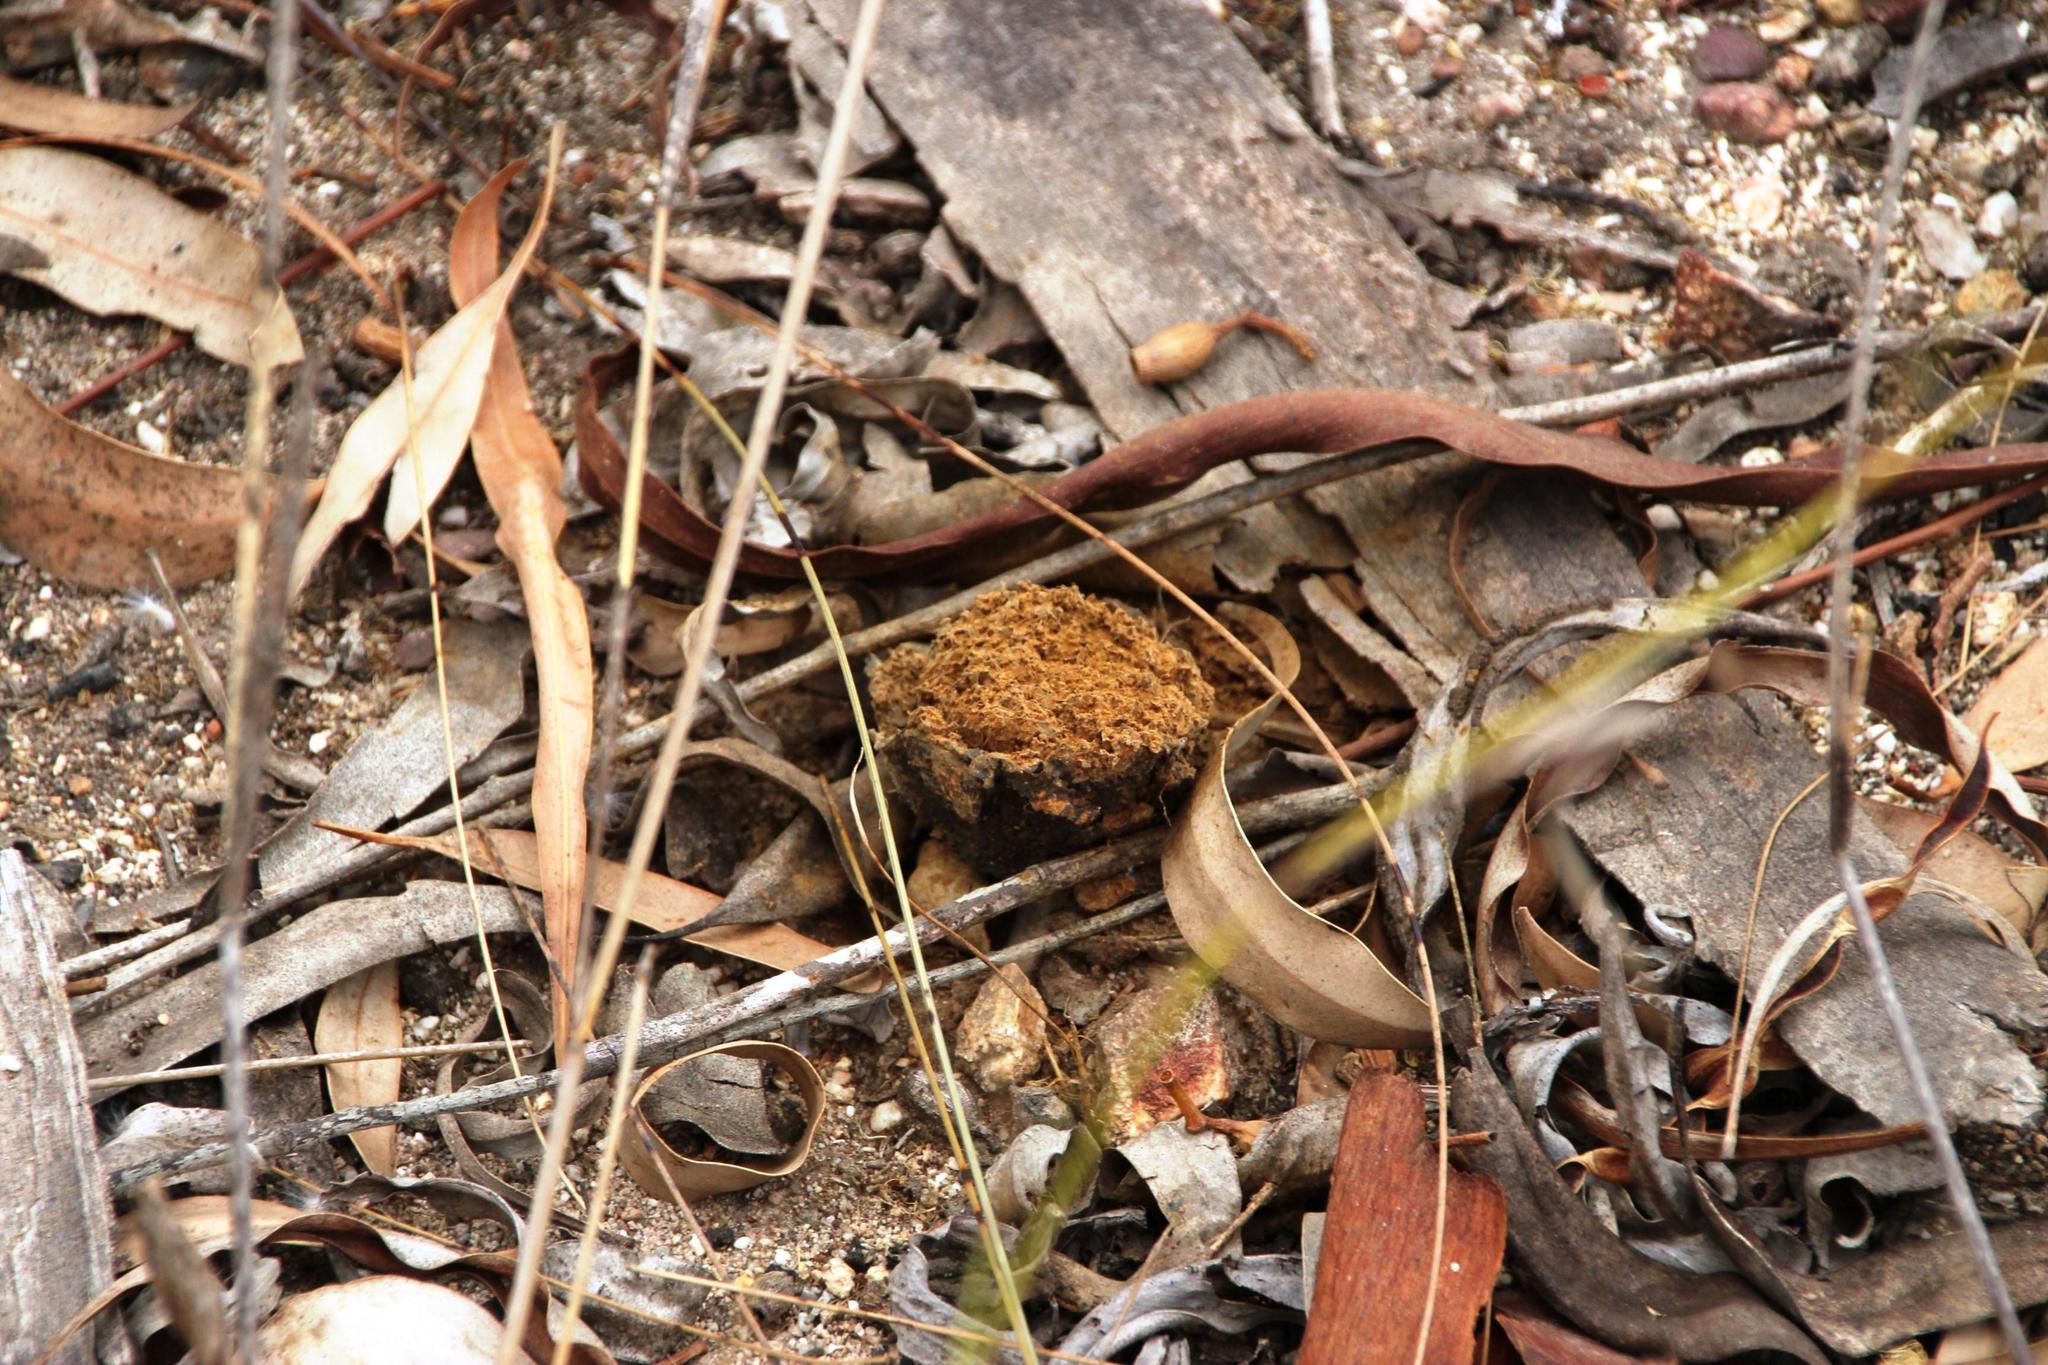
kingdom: Fungi
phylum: Basidiomycota
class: Agaricomycetes
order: Boletales
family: Sclerodermataceae
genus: Pisolithus
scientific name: Pisolithus tinctorius
